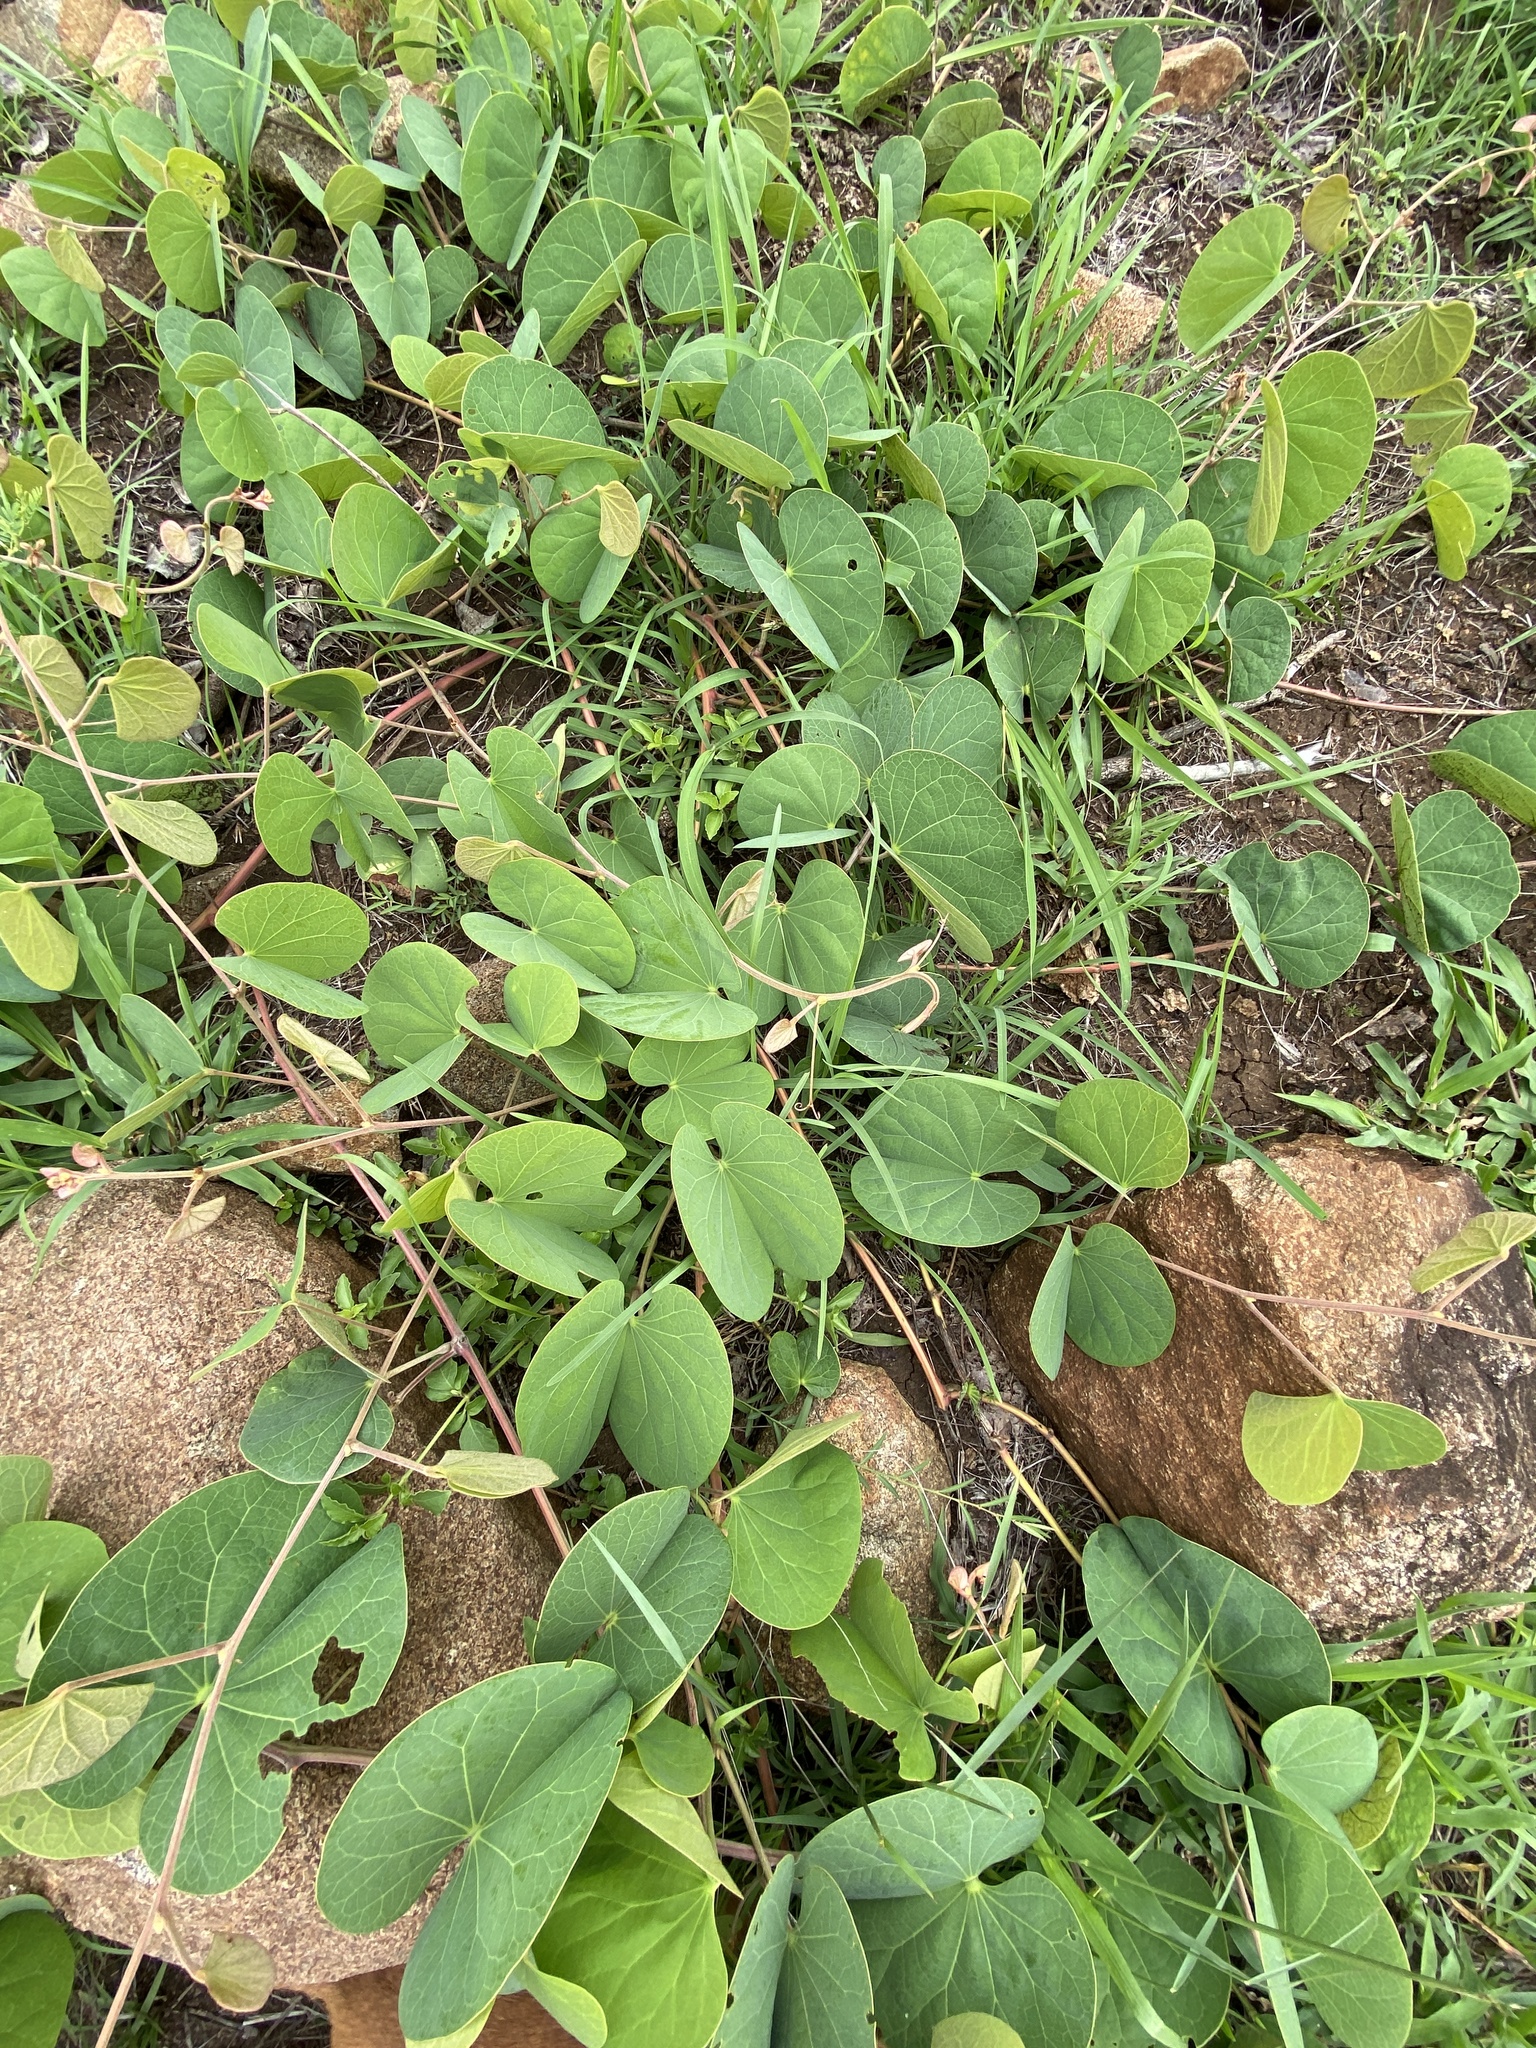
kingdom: Plantae
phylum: Tracheophyta
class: Magnoliopsida
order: Fabales
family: Fabaceae
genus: Tylosema
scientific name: Tylosema fassoglense
